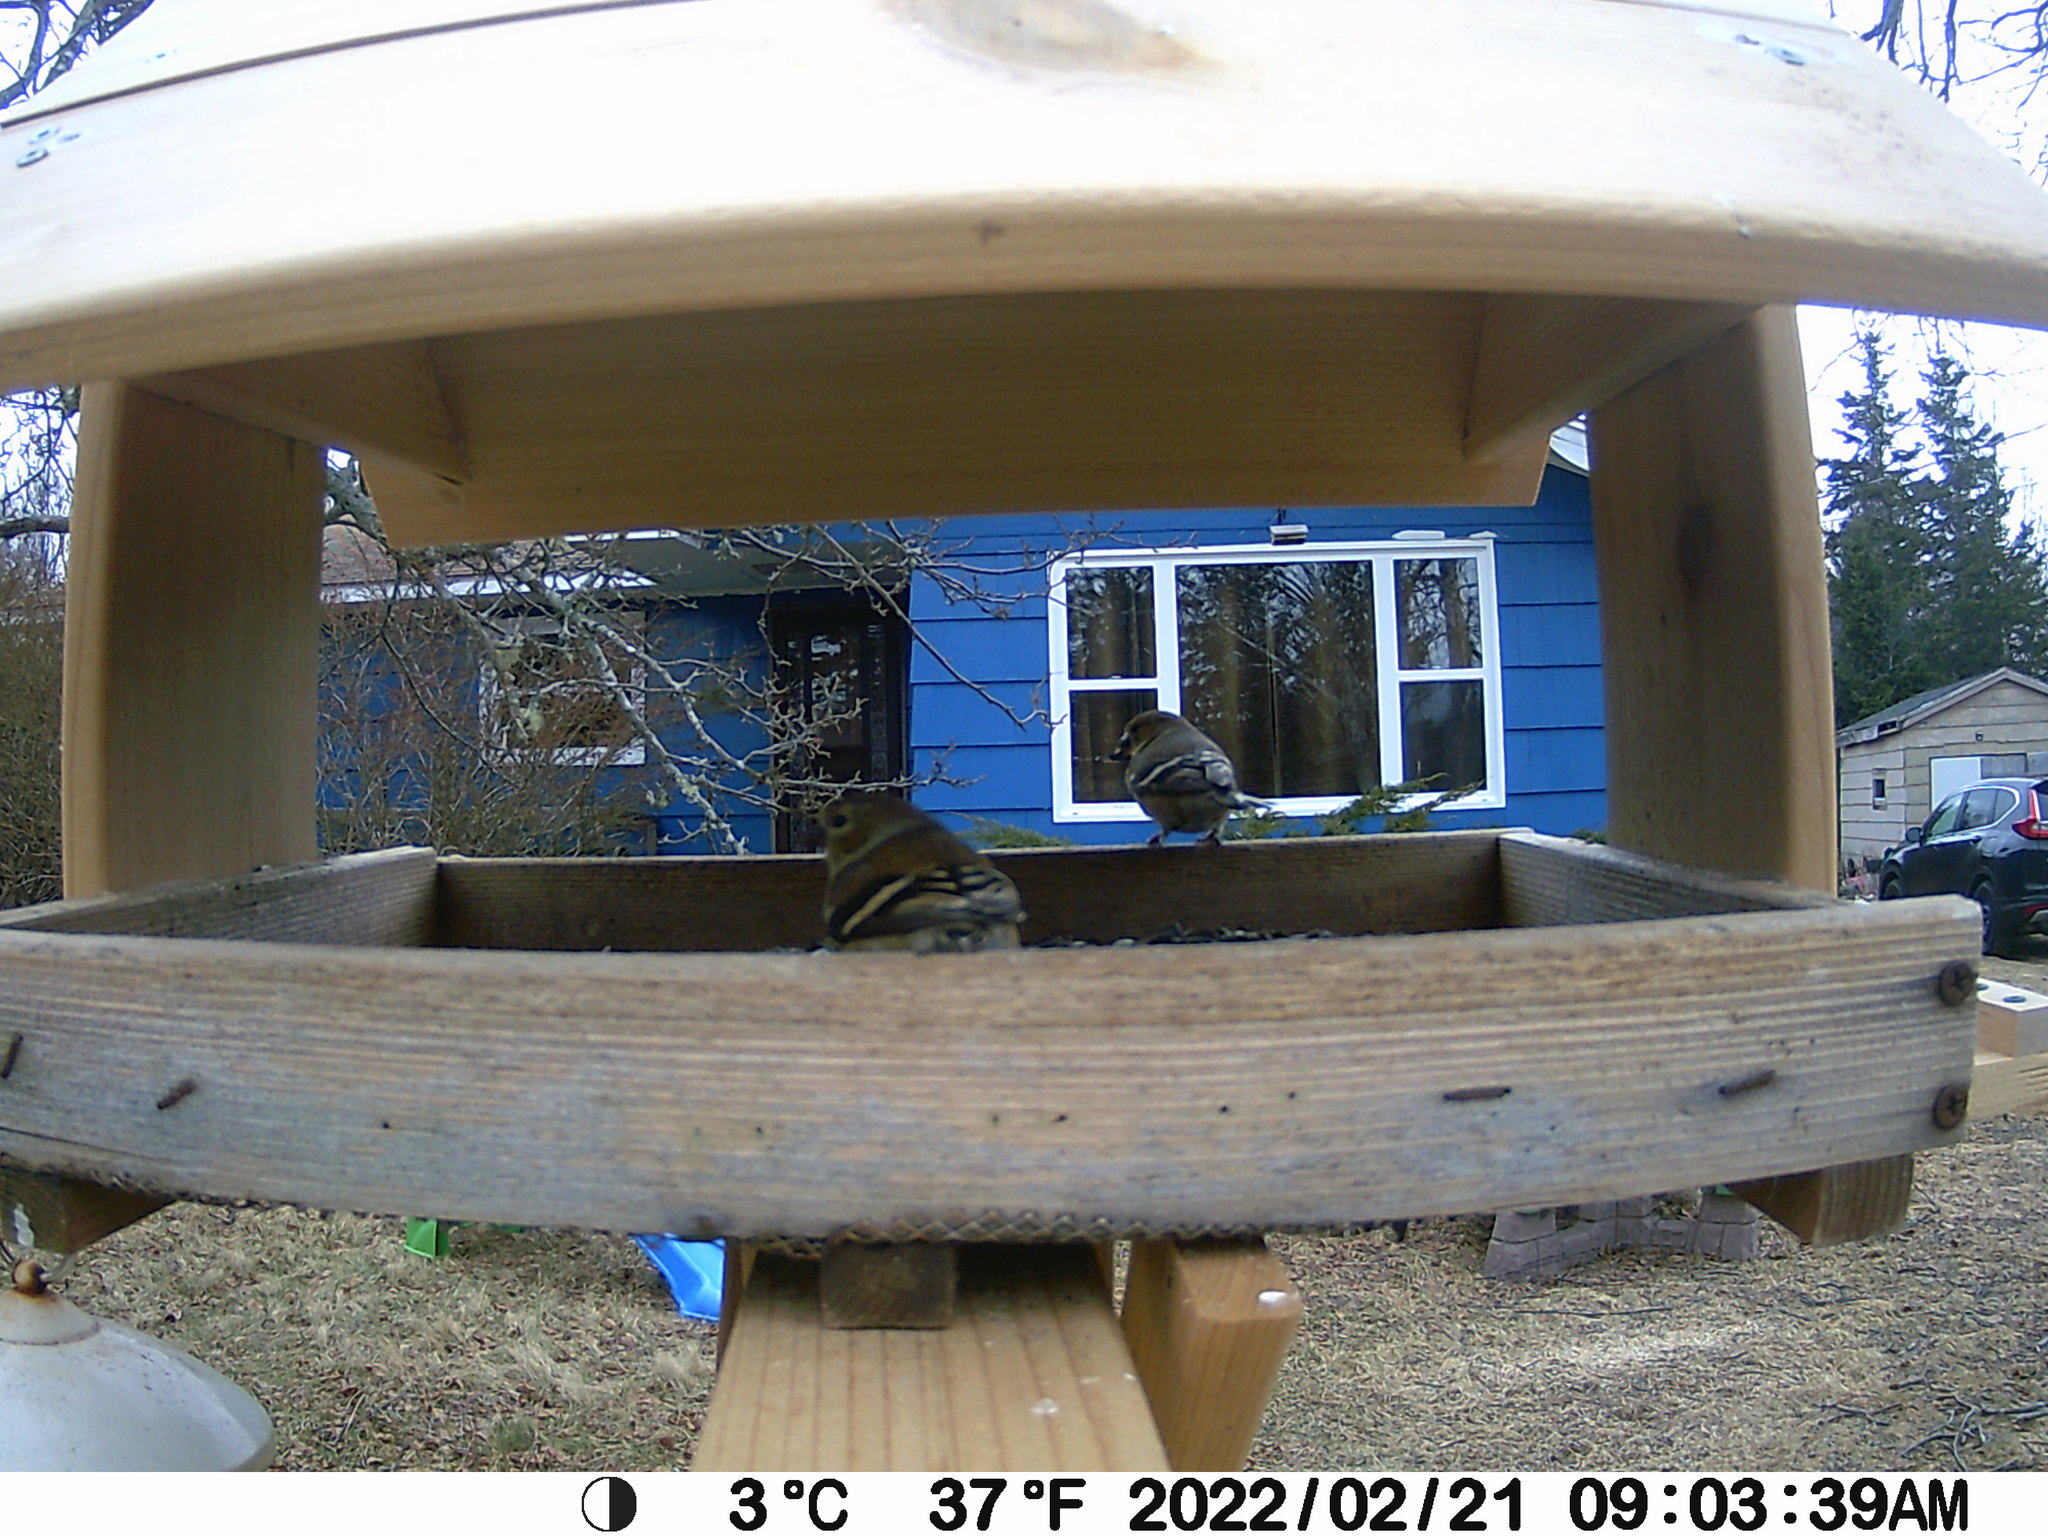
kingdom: Animalia
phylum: Chordata
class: Aves
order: Passeriformes
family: Fringillidae
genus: Spinus
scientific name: Spinus tristis
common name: American goldfinch
